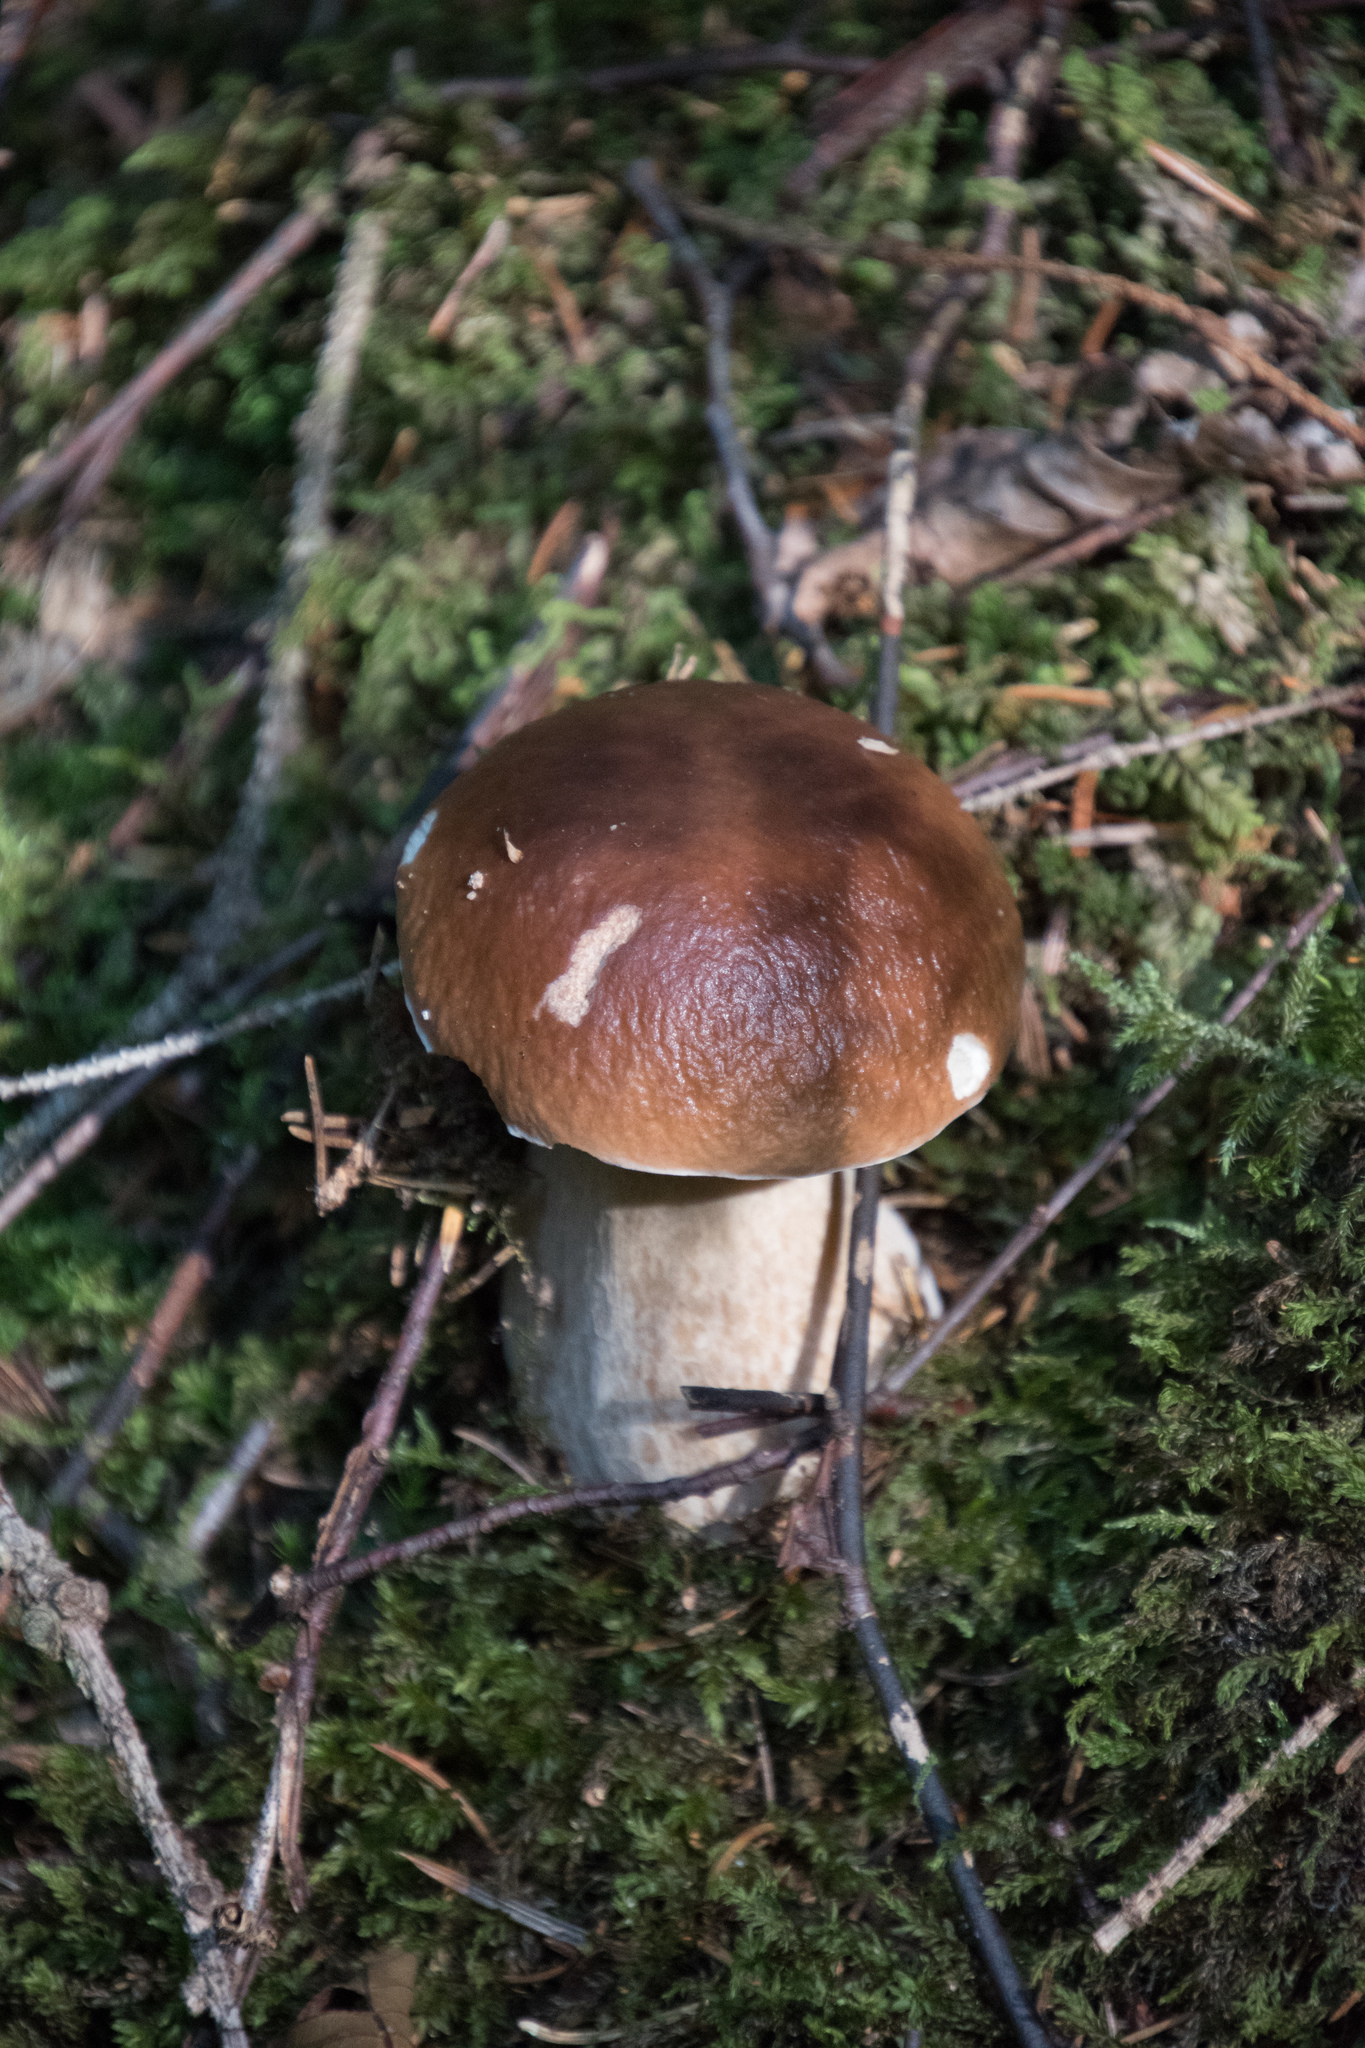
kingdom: Fungi
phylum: Basidiomycota
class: Agaricomycetes
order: Boletales
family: Boletaceae
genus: Boletus
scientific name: Boletus edulis
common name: Cep
